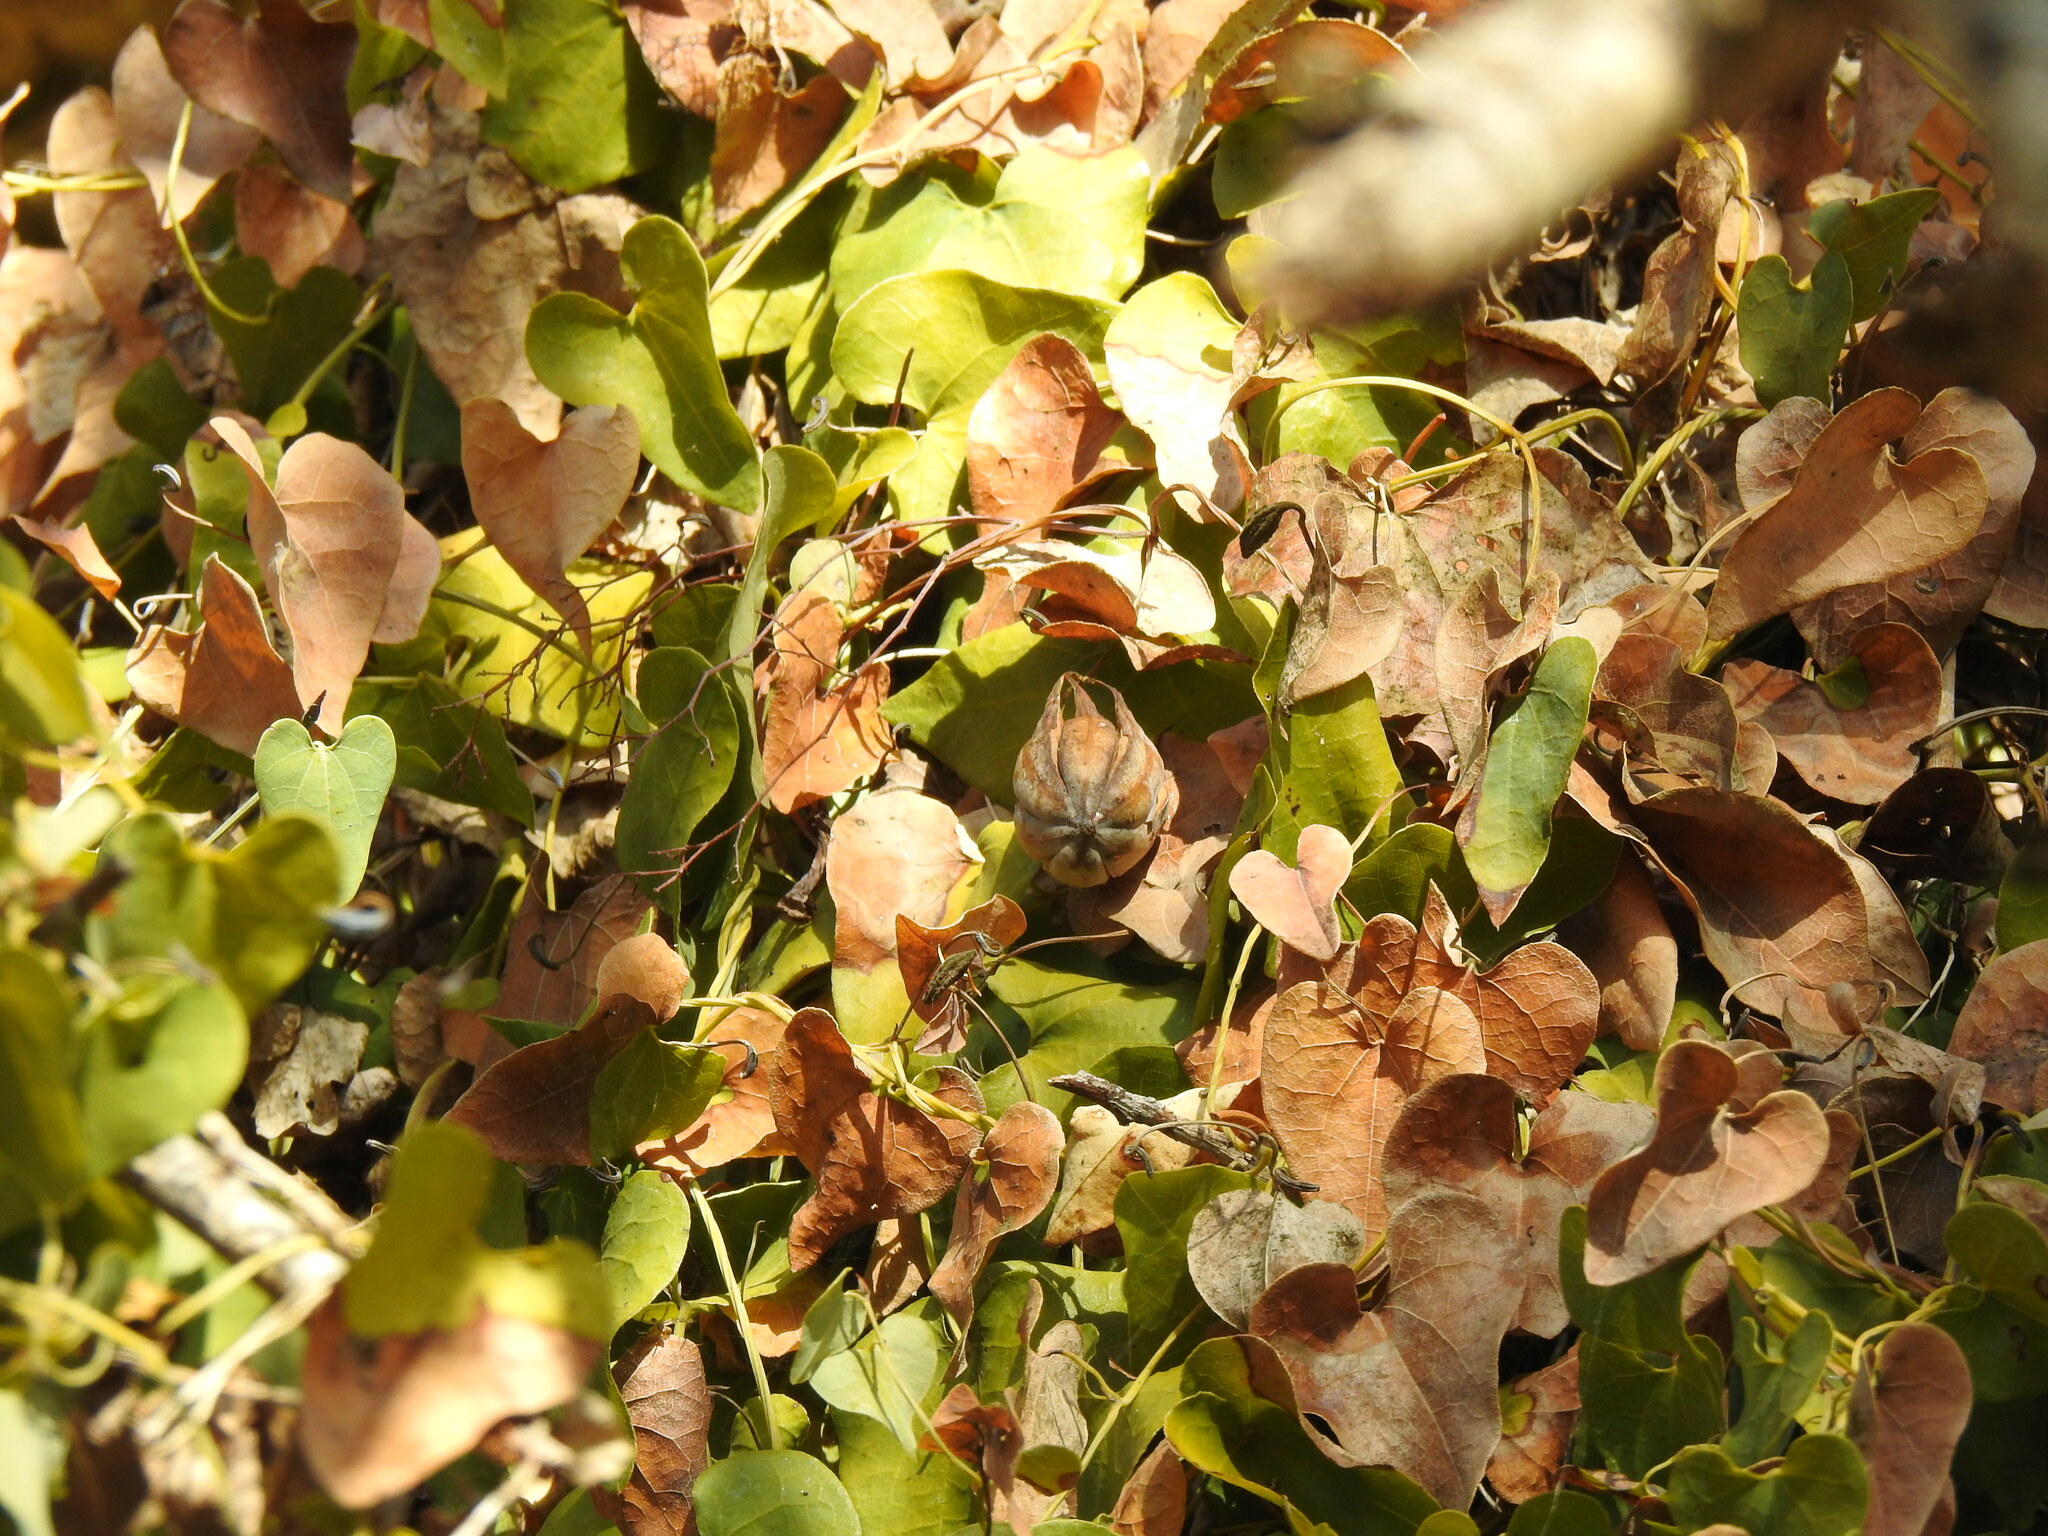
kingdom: Plantae
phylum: Tracheophyta
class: Magnoliopsida
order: Piperales
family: Aristolochiaceae
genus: Aristolochia
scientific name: Aristolochia baetica
